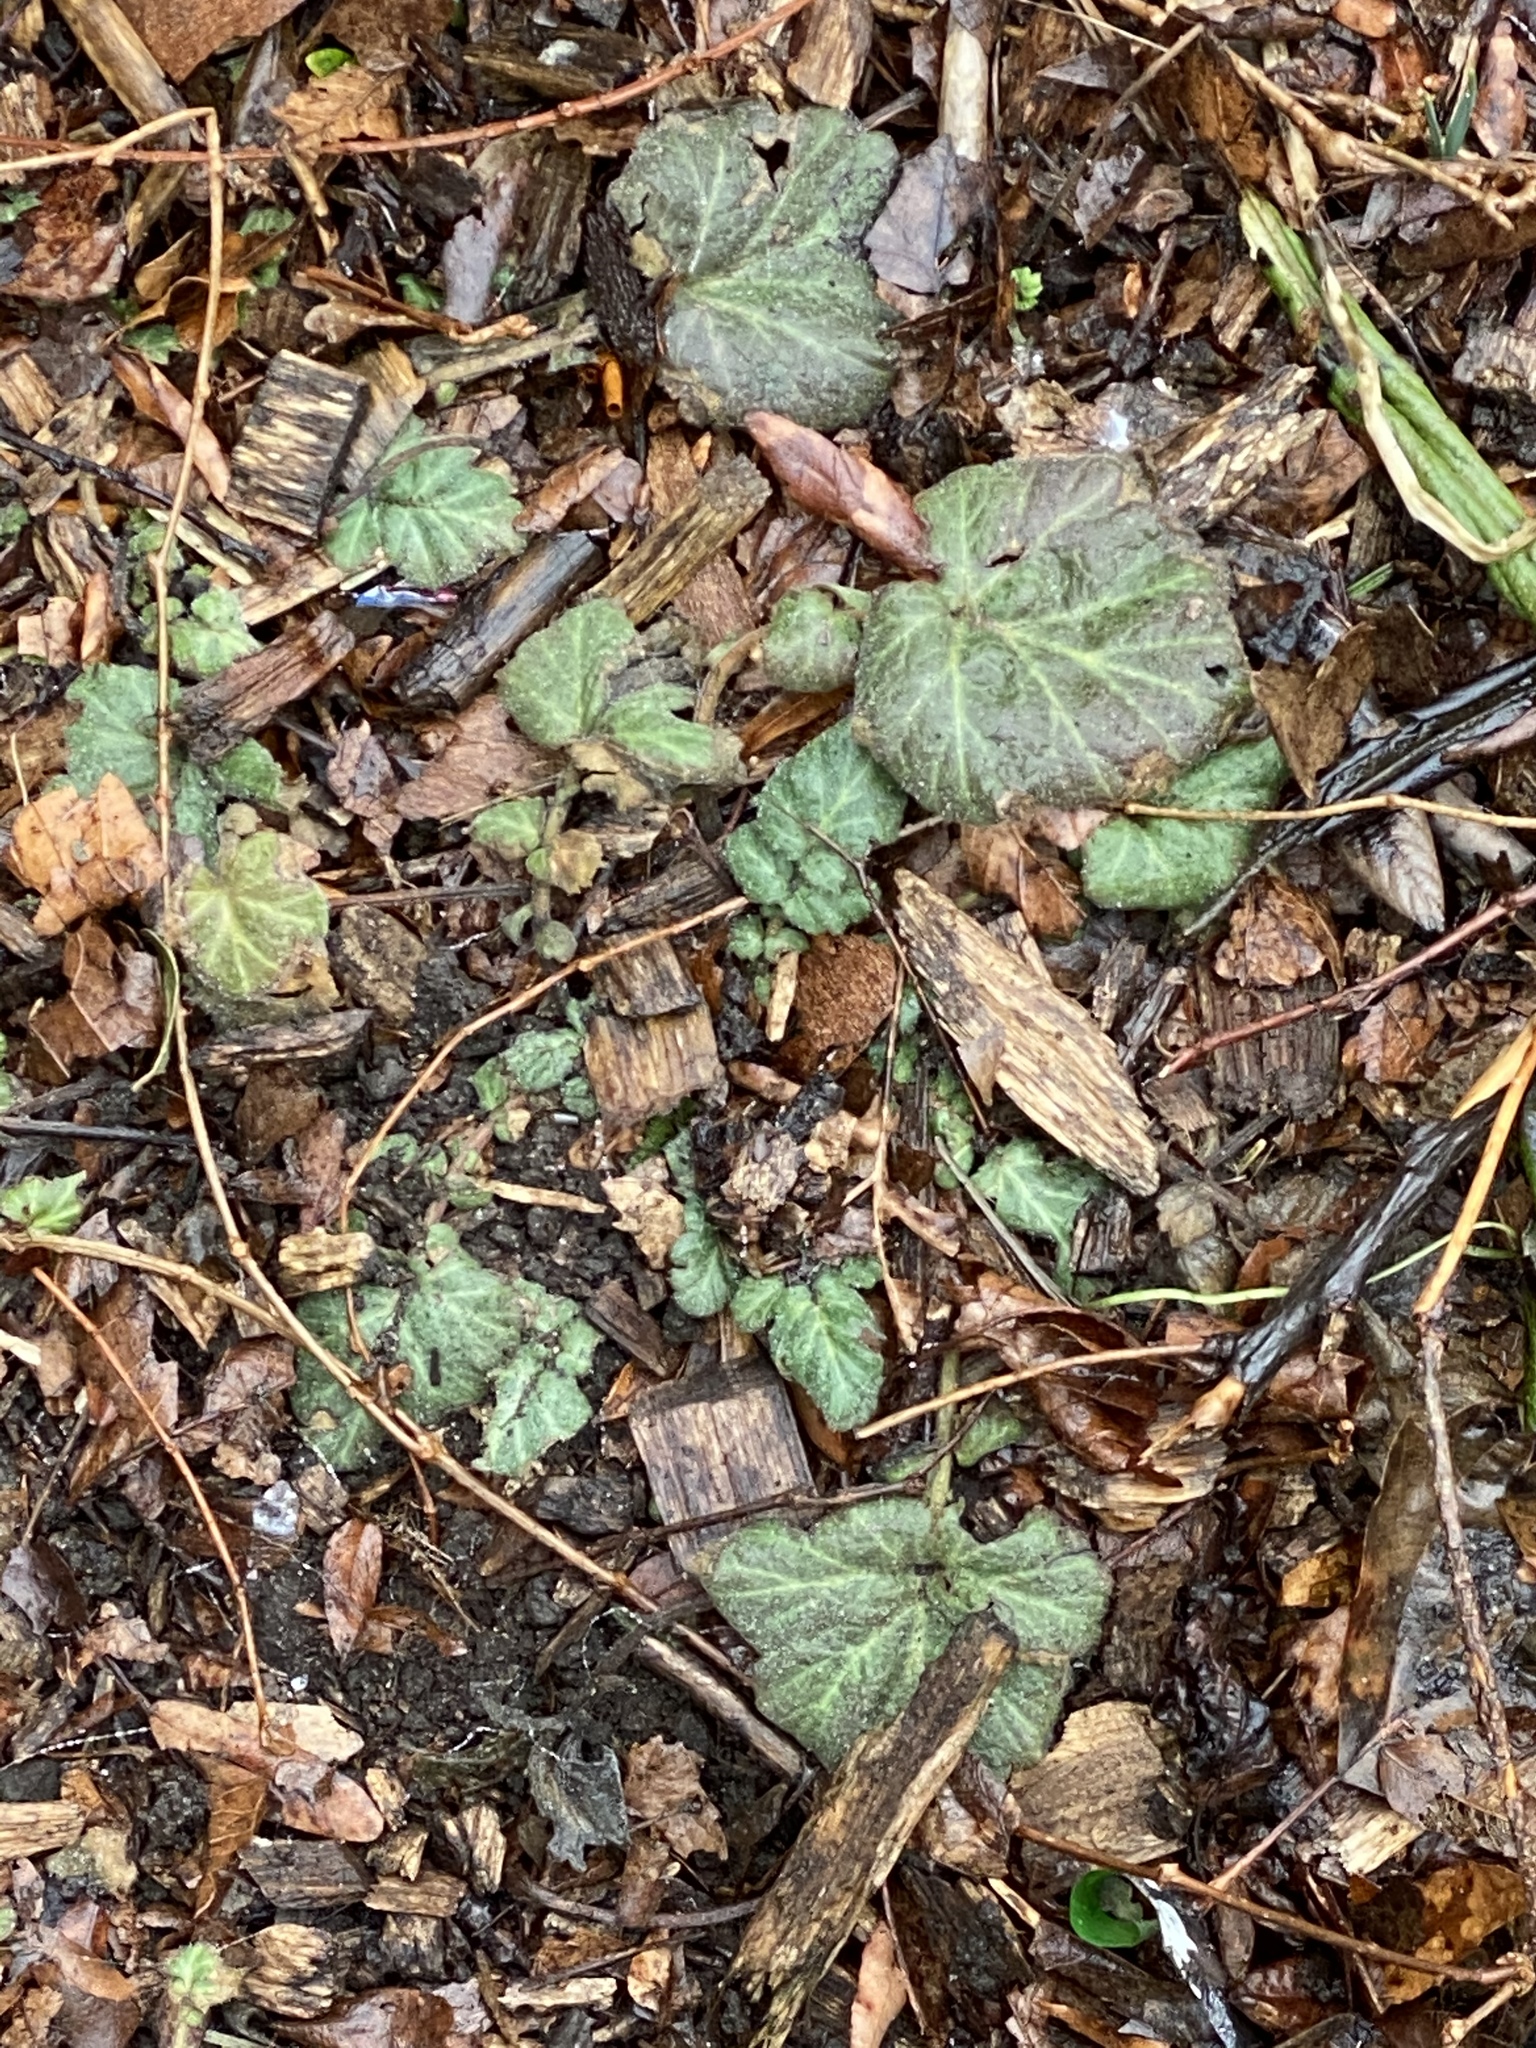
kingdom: Plantae
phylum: Tracheophyta
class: Magnoliopsida
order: Rosales
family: Rosaceae
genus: Geum
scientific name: Geum canadense
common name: White avens
